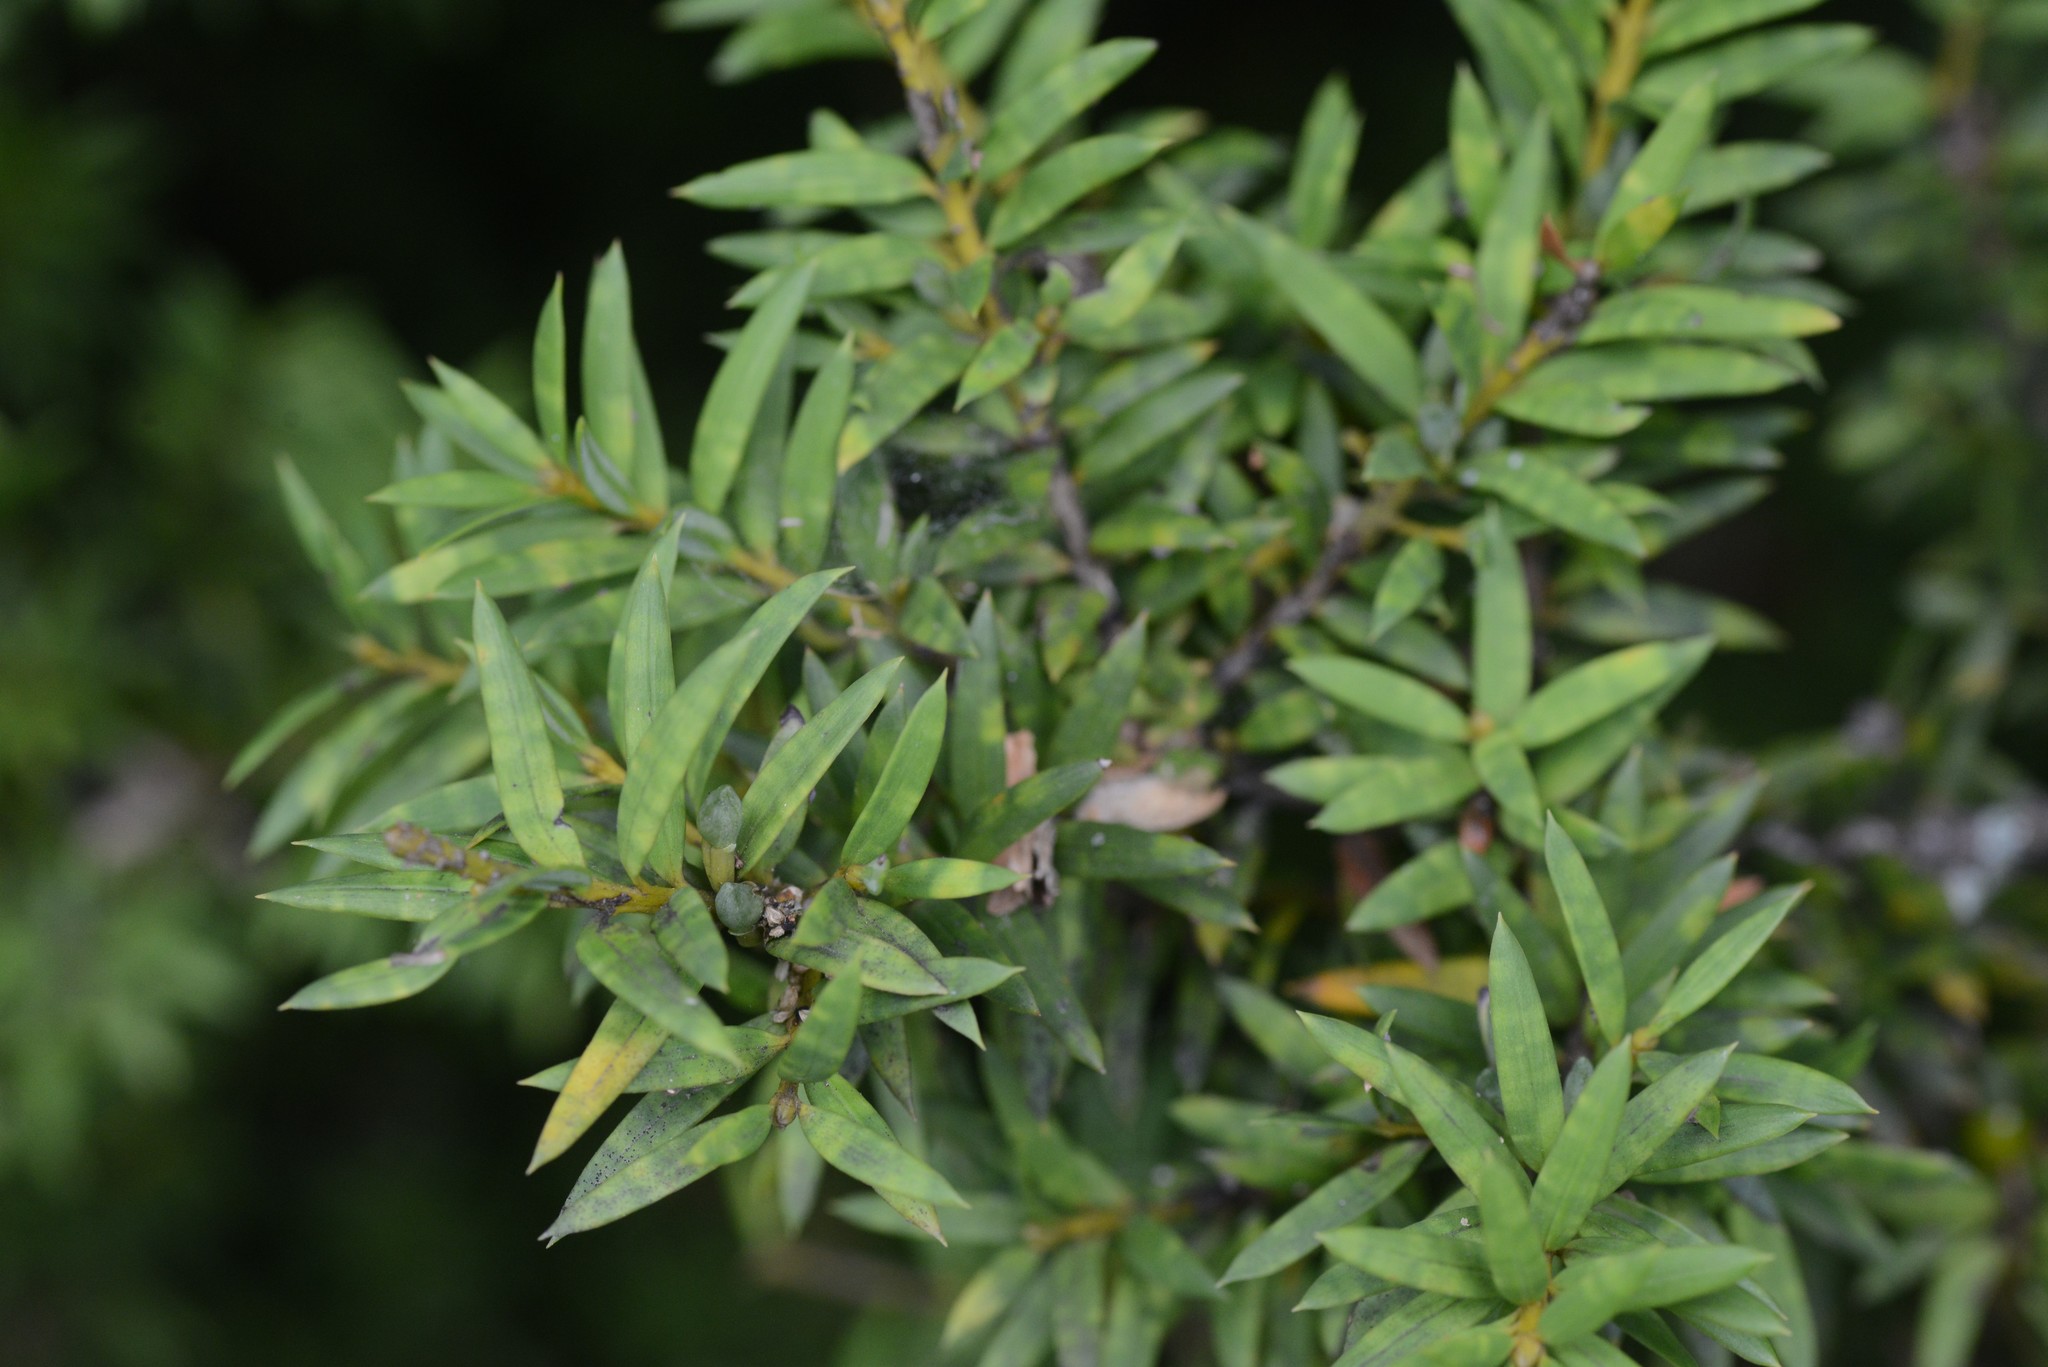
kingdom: Plantae
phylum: Tracheophyta
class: Pinopsida
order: Pinales
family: Podocarpaceae
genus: Podocarpus
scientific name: Podocarpus totara
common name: Totara
